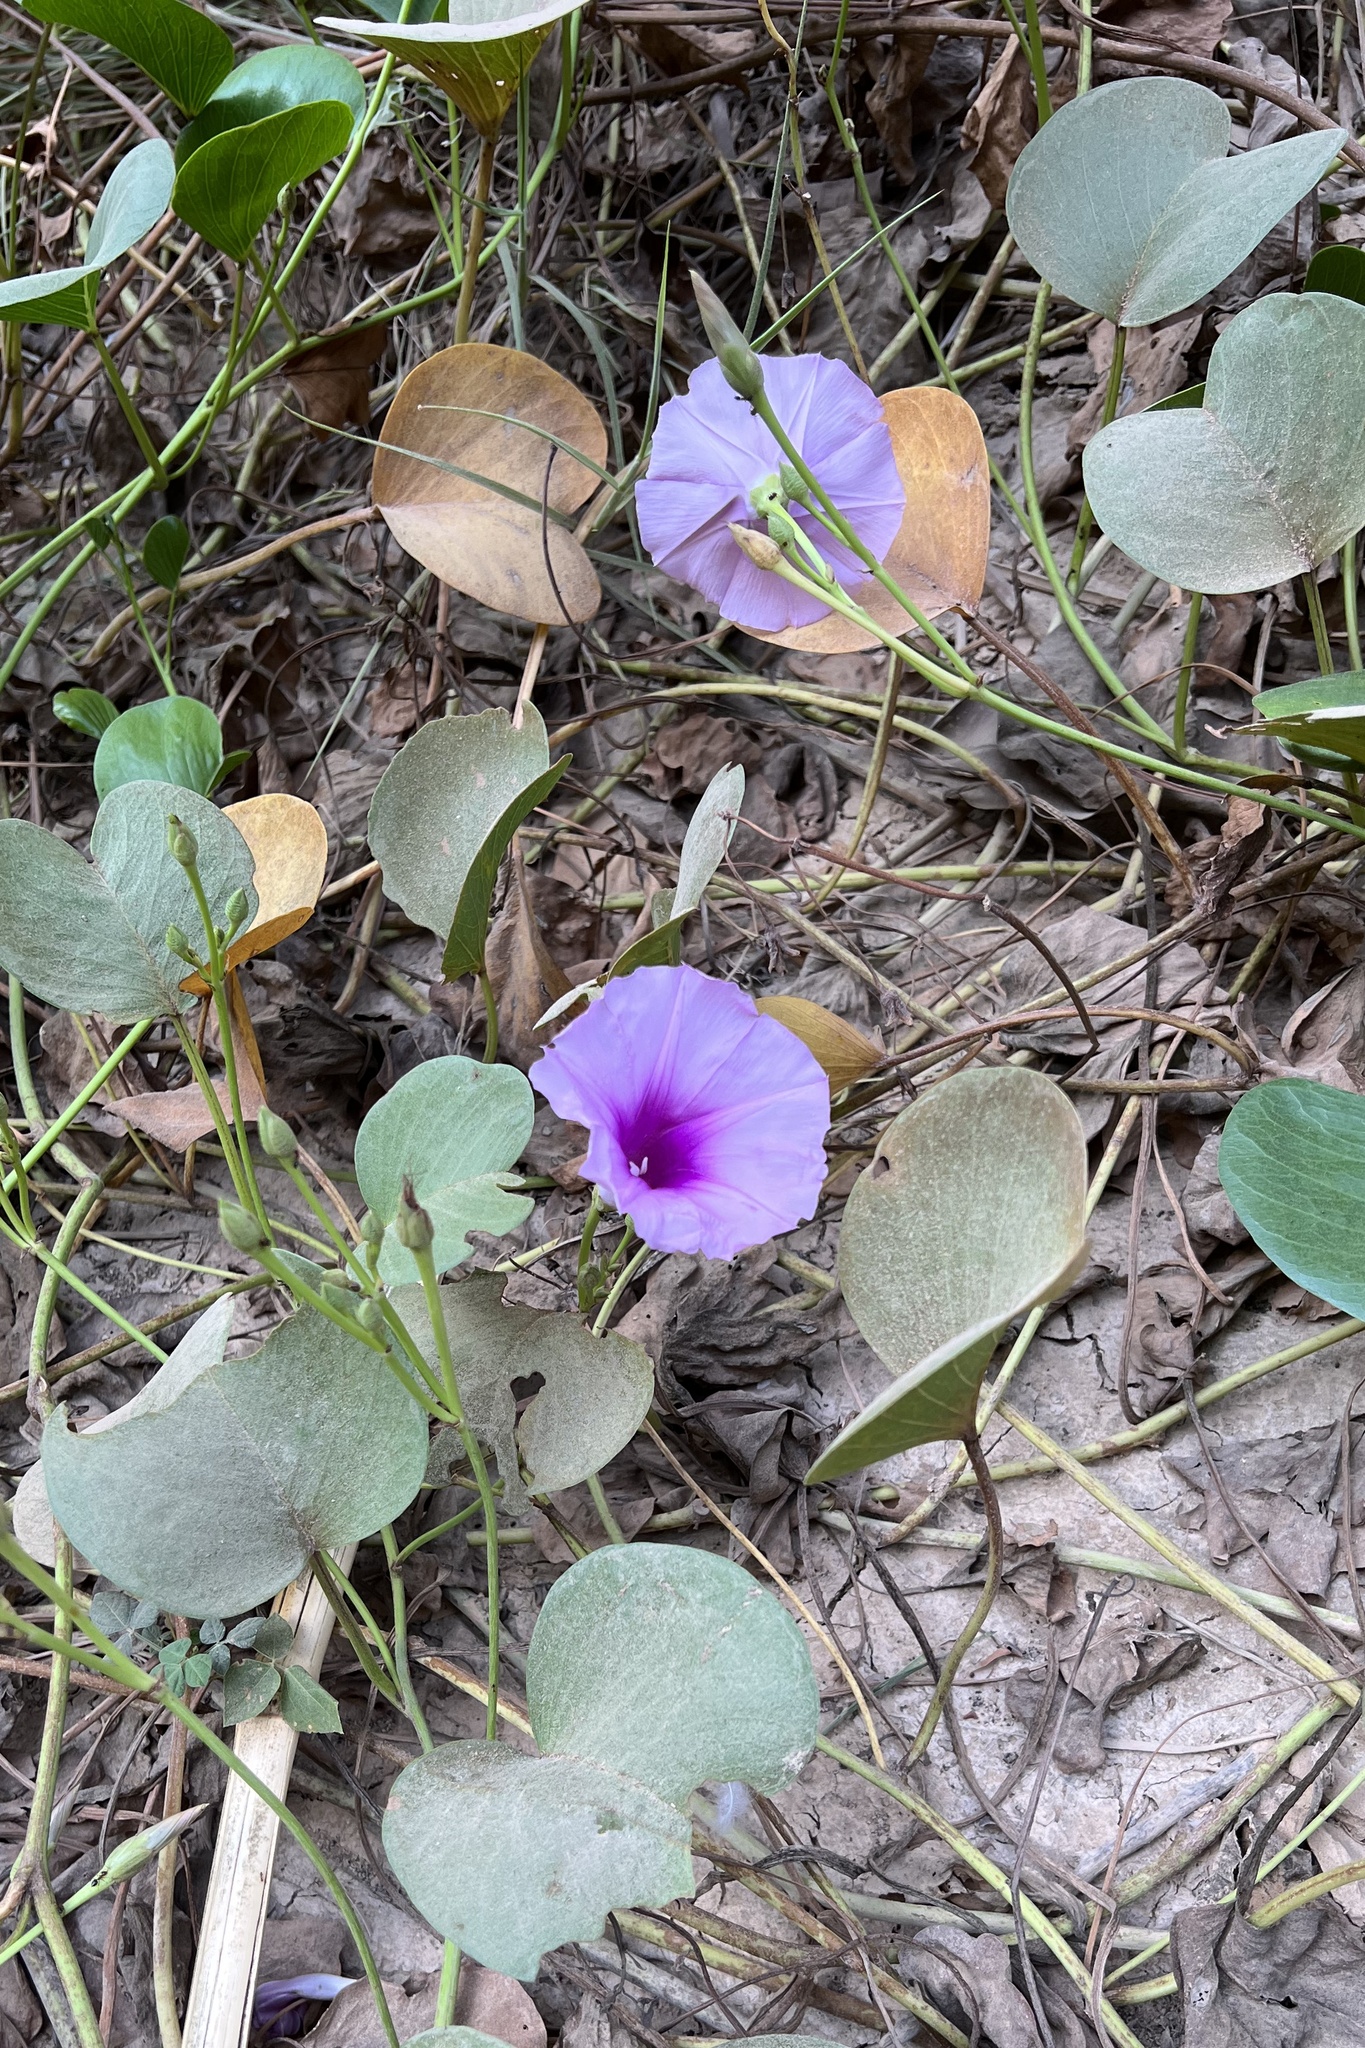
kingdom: Plantae
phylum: Tracheophyta
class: Magnoliopsida
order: Solanales
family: Convolvulaceae
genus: Ipomoea
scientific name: Ipomoea pes-caprae
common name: Beach morning glory
